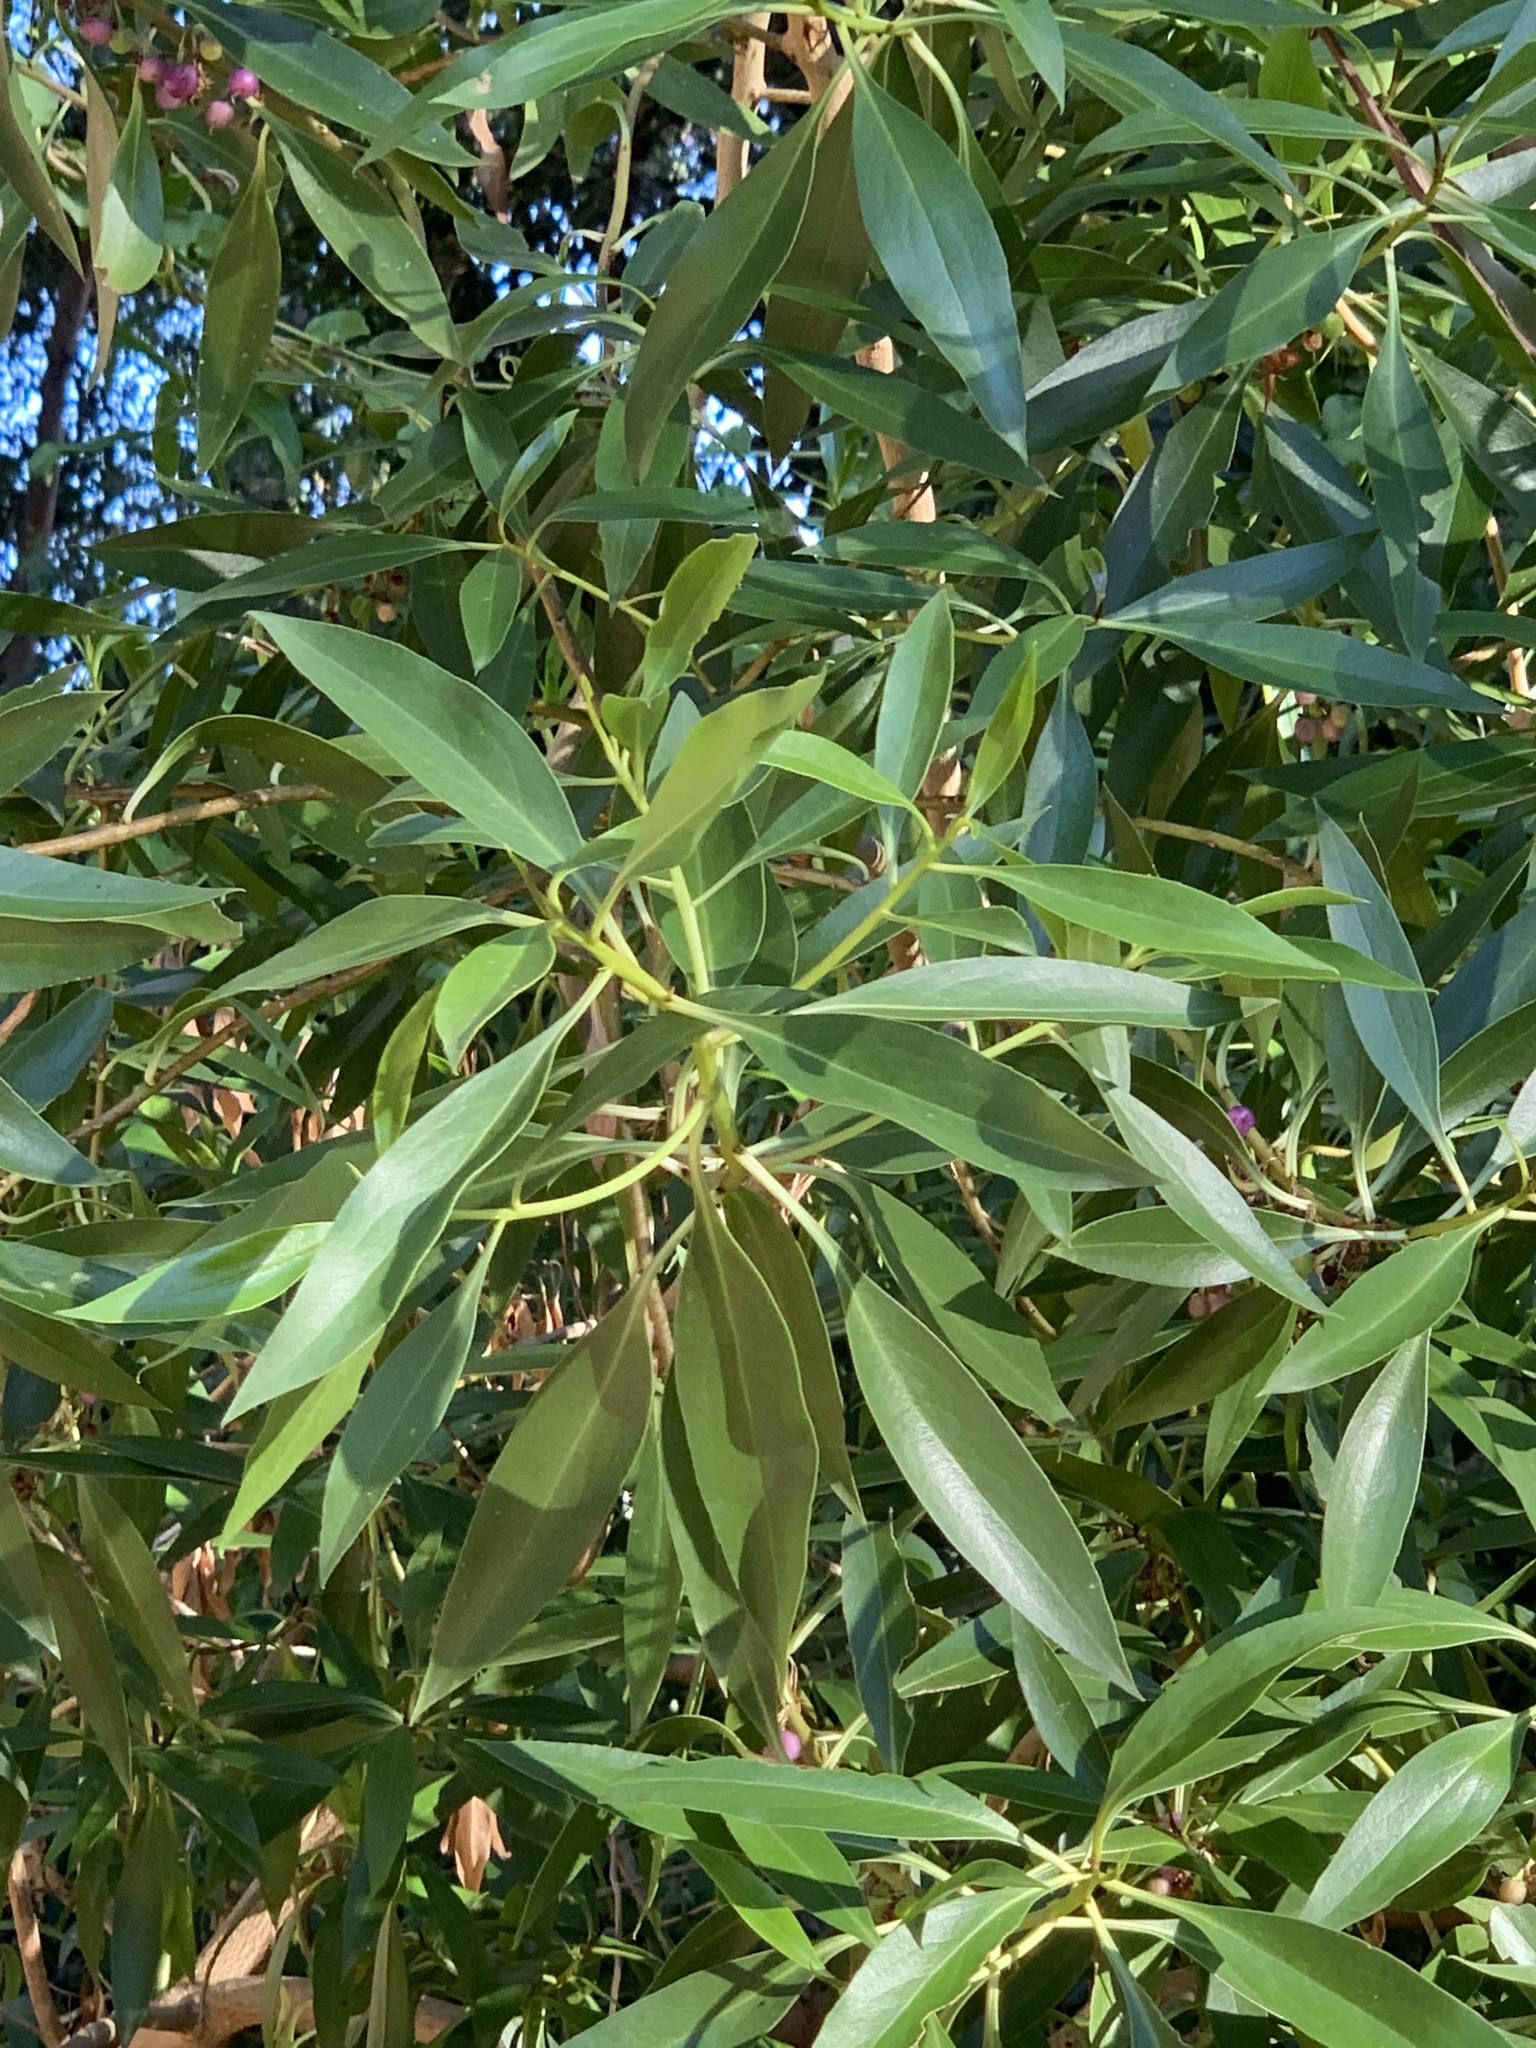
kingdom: Plantae
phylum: Tracheophyta
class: Magnoliopsida
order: Lamiales
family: Scrophulariaceae
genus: Myoporum
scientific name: Myoporum insulare
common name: Common boobialla
